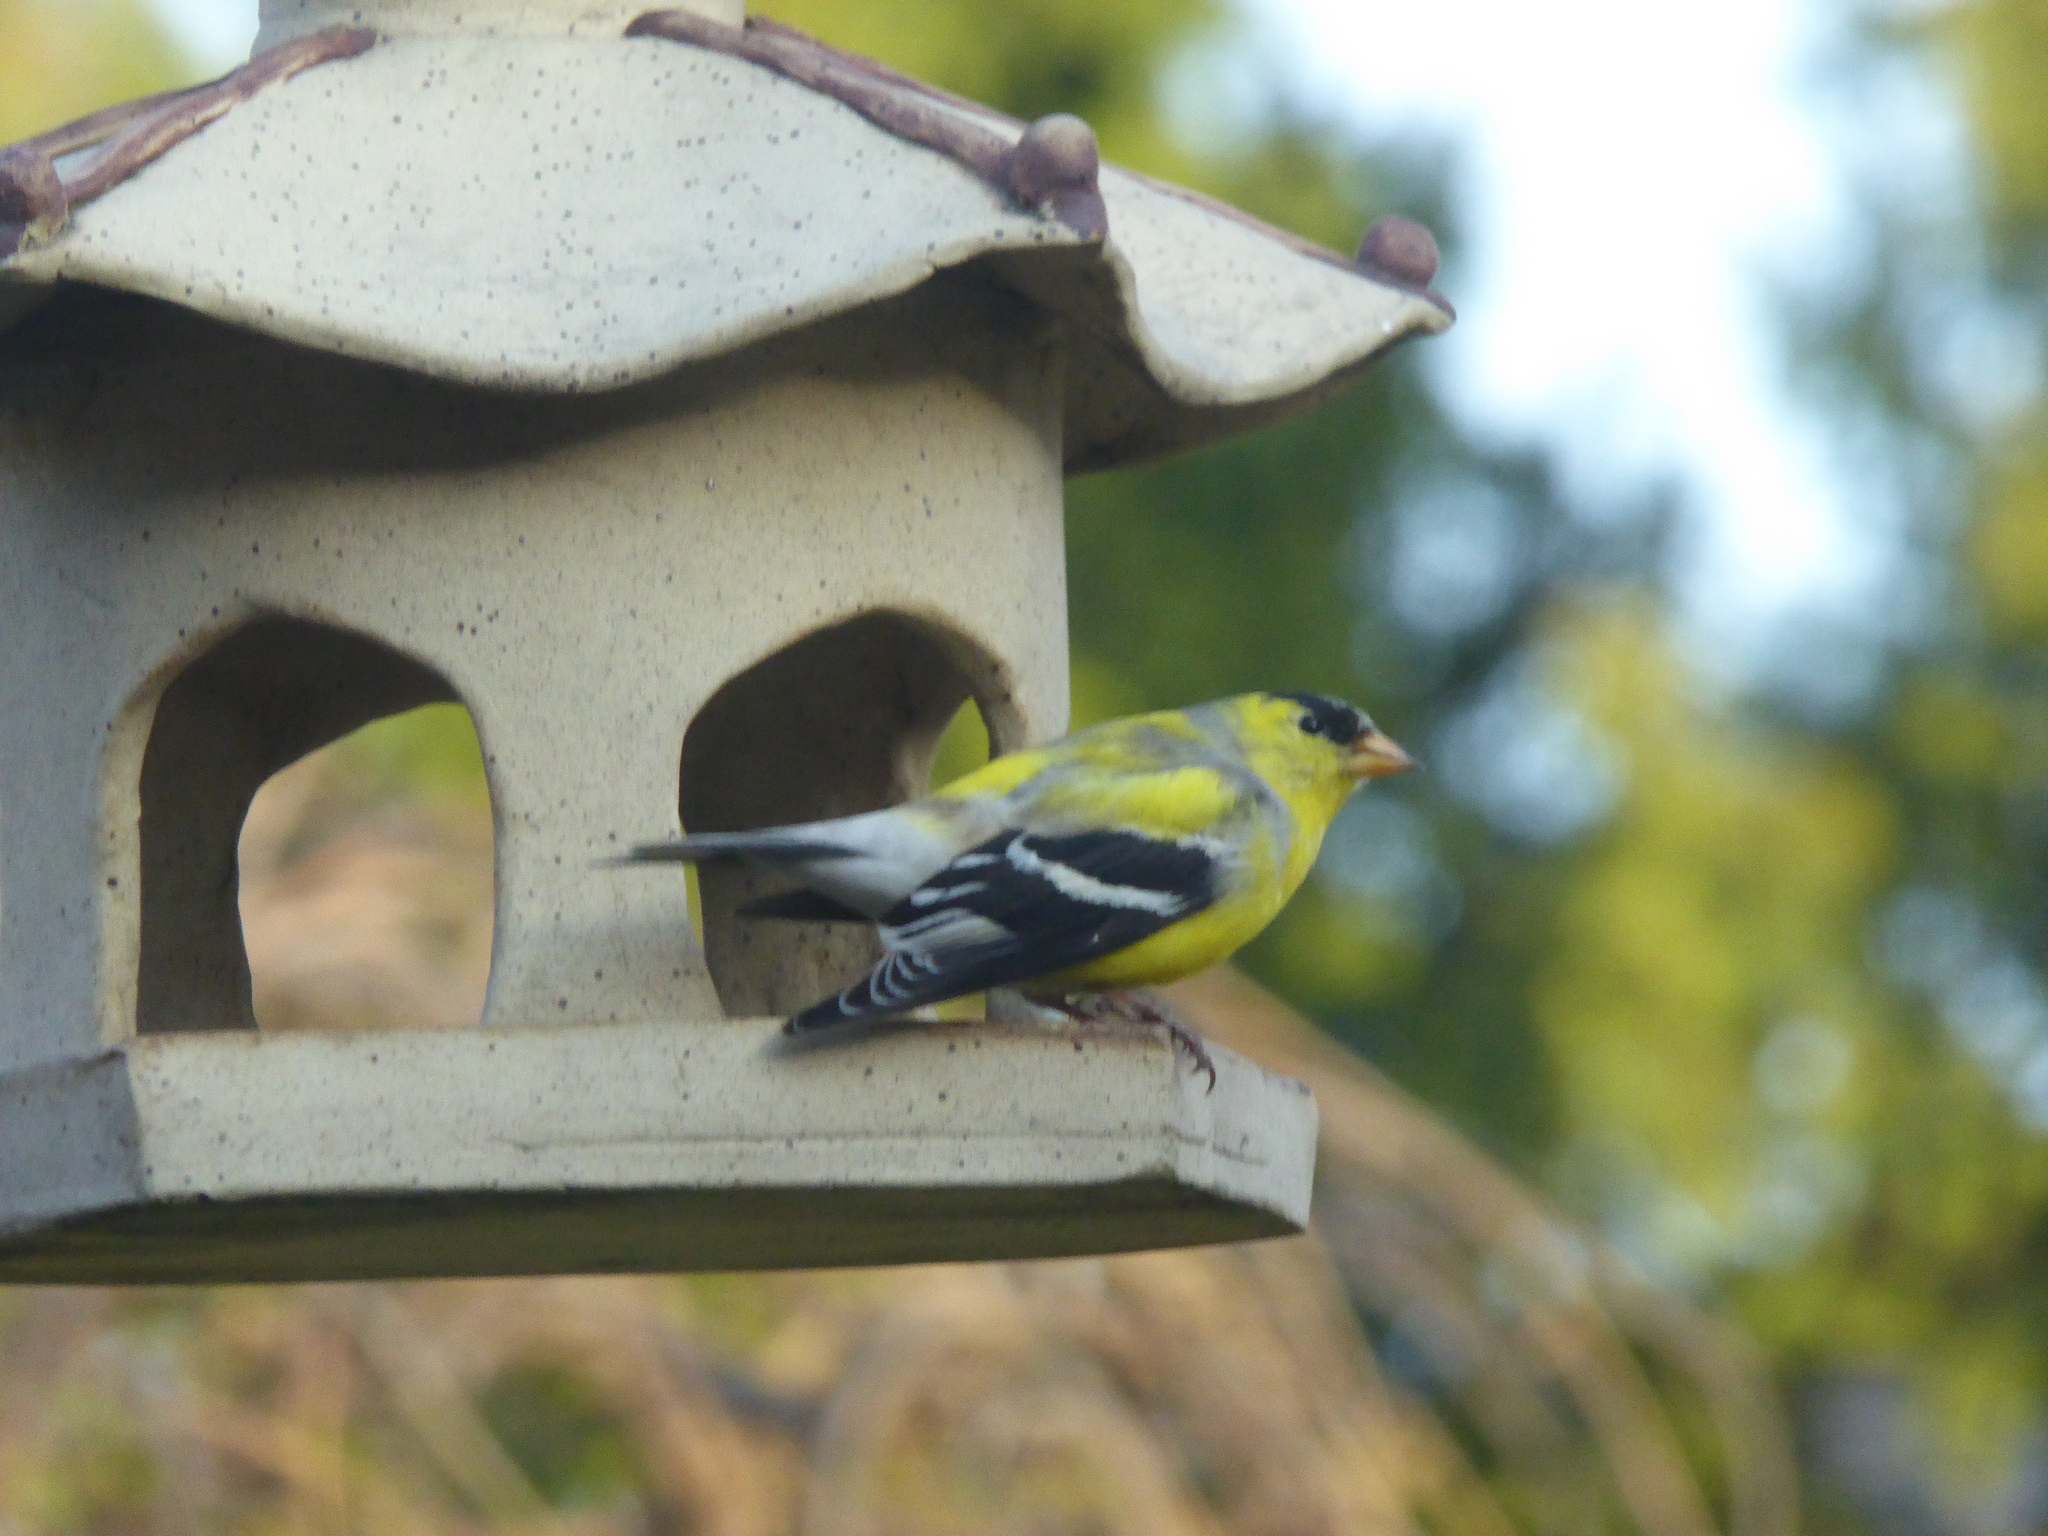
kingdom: Animalia
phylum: Chordata
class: Aves
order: Passeriformes
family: Fringillidae
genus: Spinus
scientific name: Spinus tristis
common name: American goldfinch
